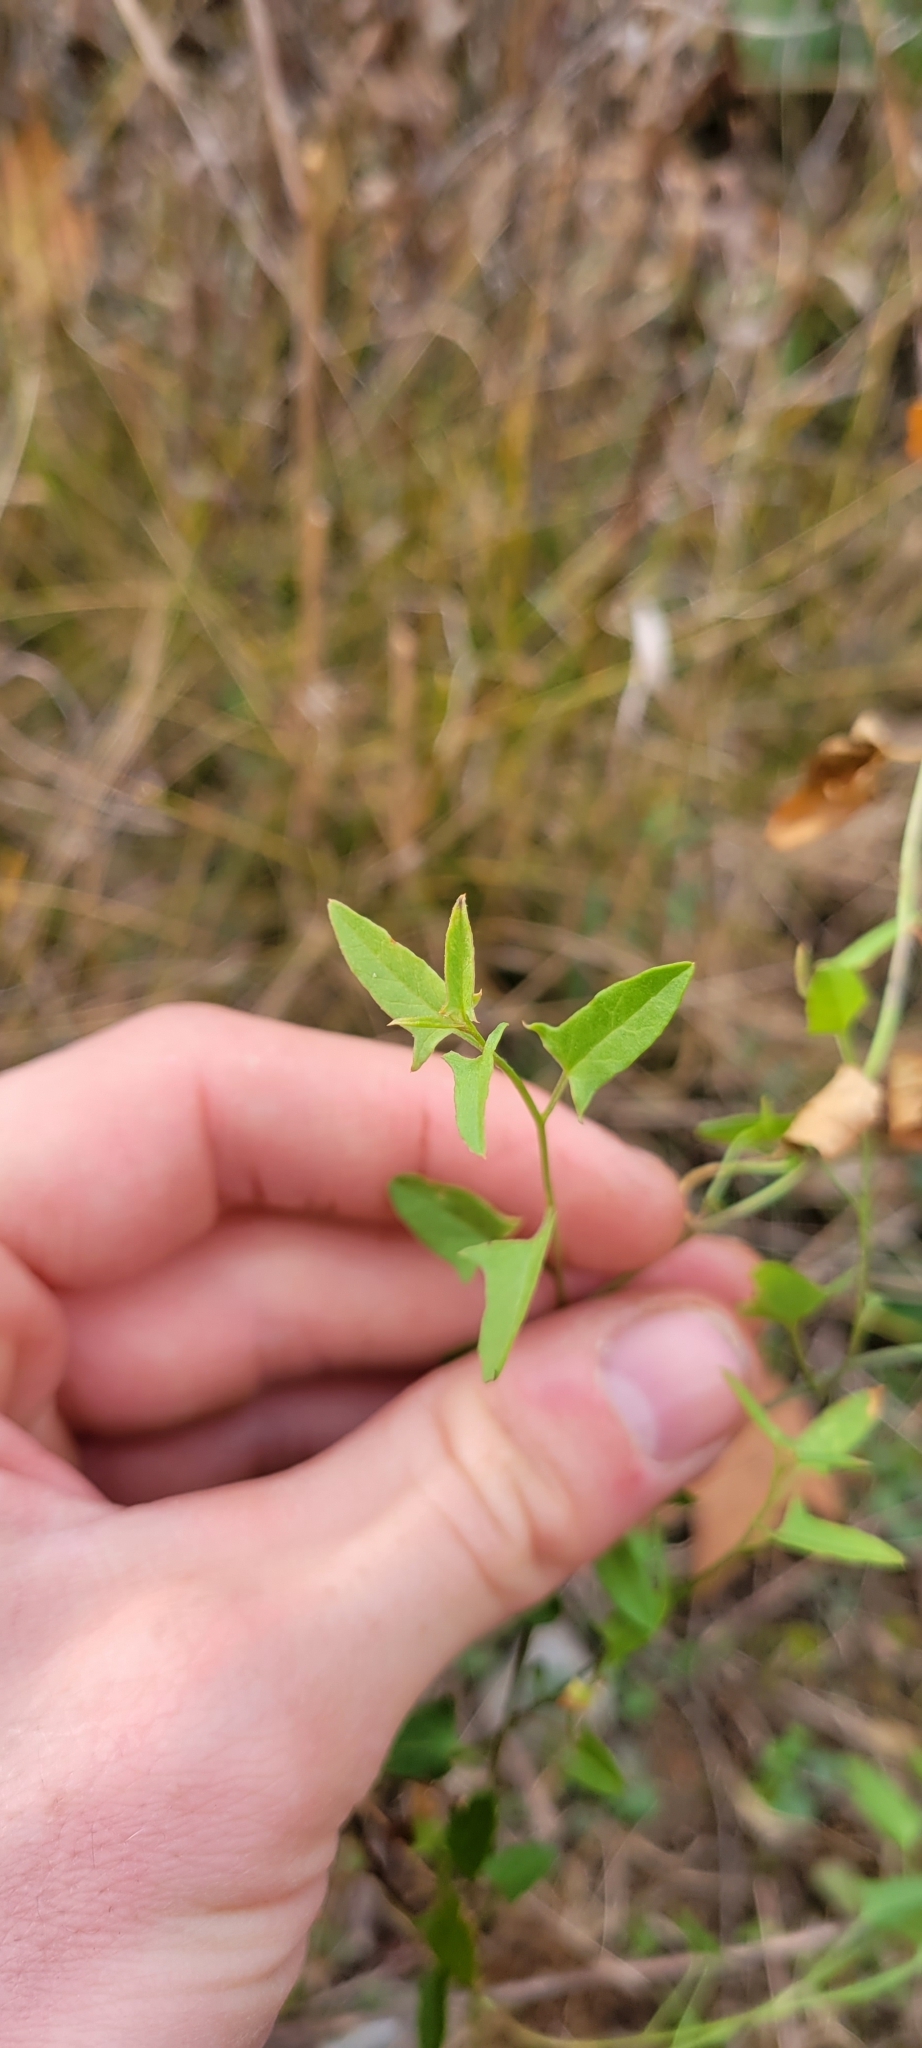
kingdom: Plantae
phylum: Tracheophyta
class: Magnoliopsida
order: Caryophyllales
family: Amaranthaceae
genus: Atriplex
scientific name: Atriplex prostrata
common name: Spear-leaved orache
